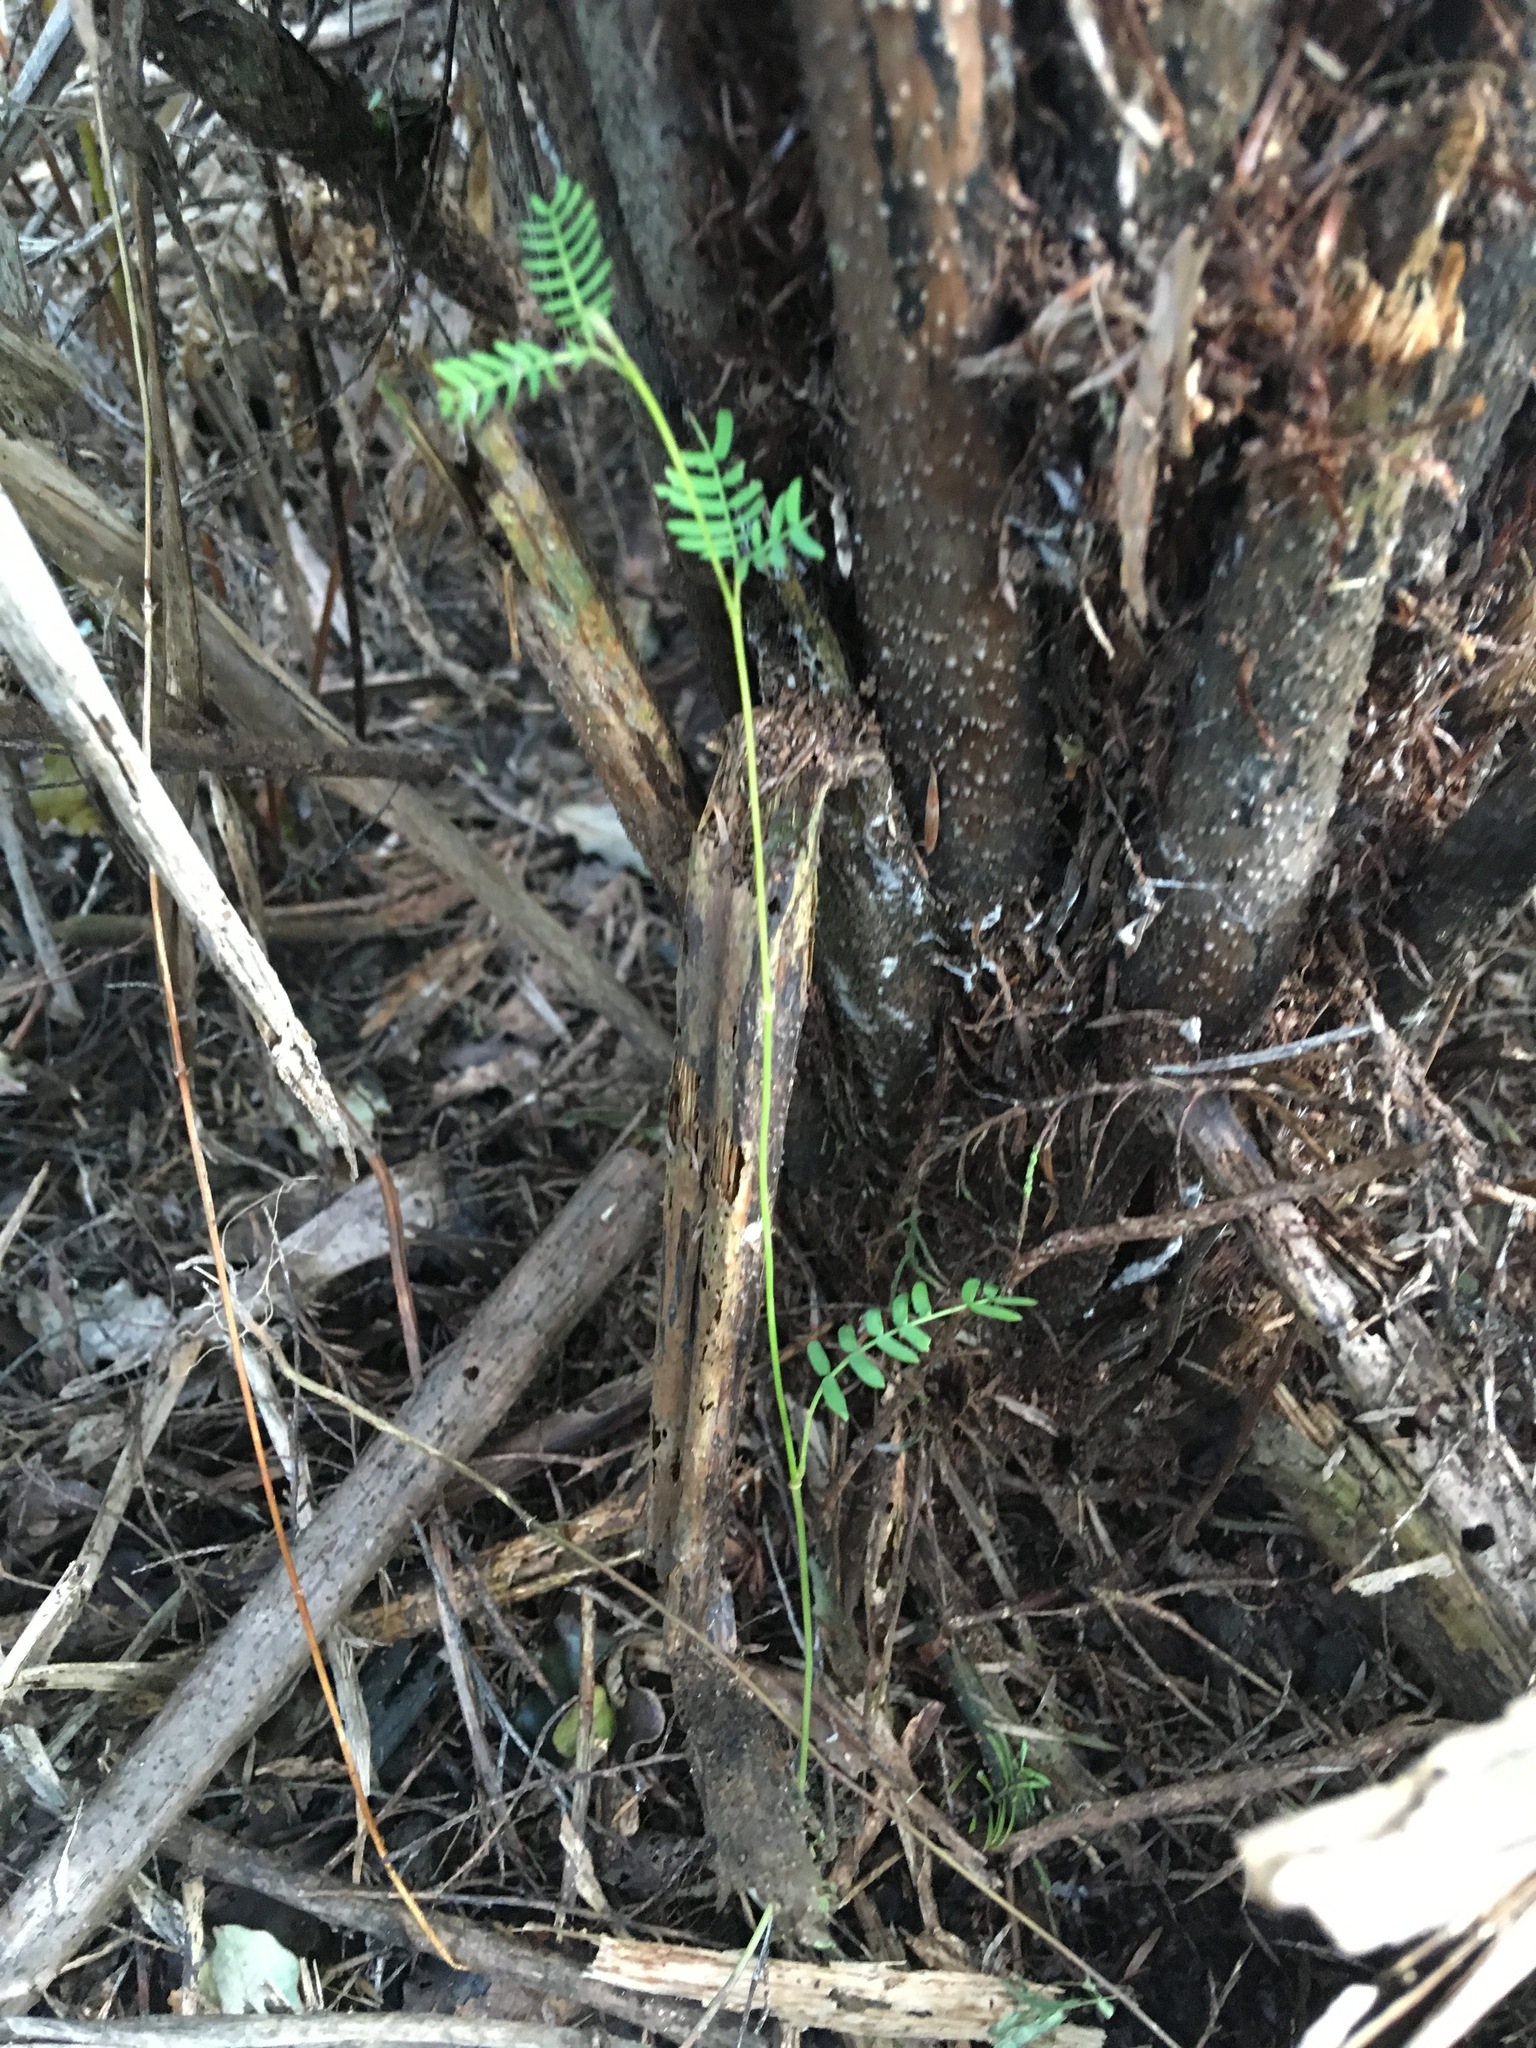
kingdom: Plantae
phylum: Tracheophyta
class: Magnoliopsida
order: Fabales
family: Fabaceae
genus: Paraserianthes
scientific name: Paraserianthes lophantha
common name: Plume albizia
